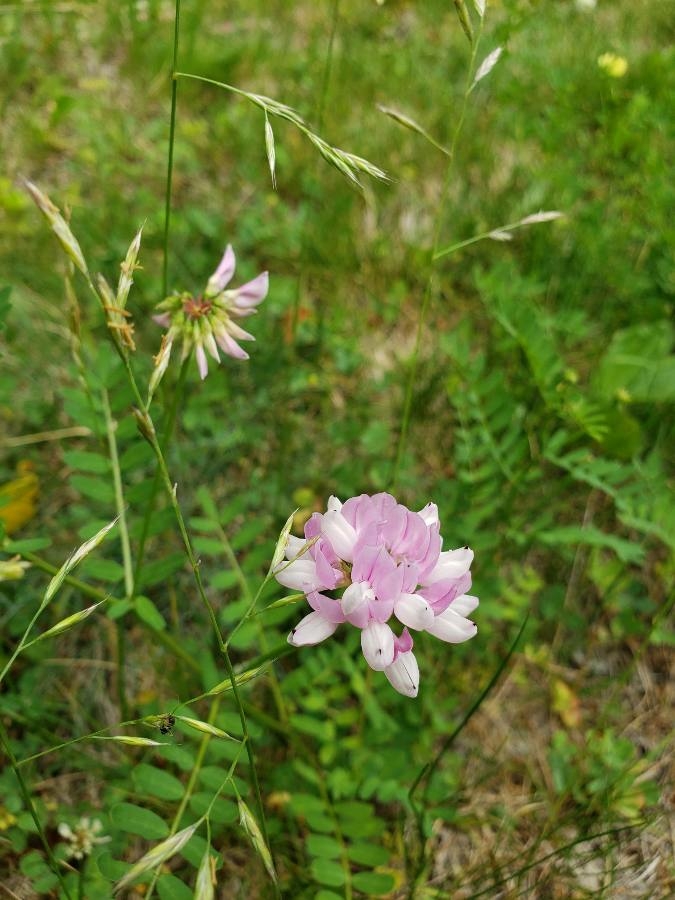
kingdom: Plantae
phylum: Tracheophyta
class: Magnoliopsida
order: Fabales
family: Fabaceae
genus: Coronilla
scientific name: Coronilla varia
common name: Crownvetch
